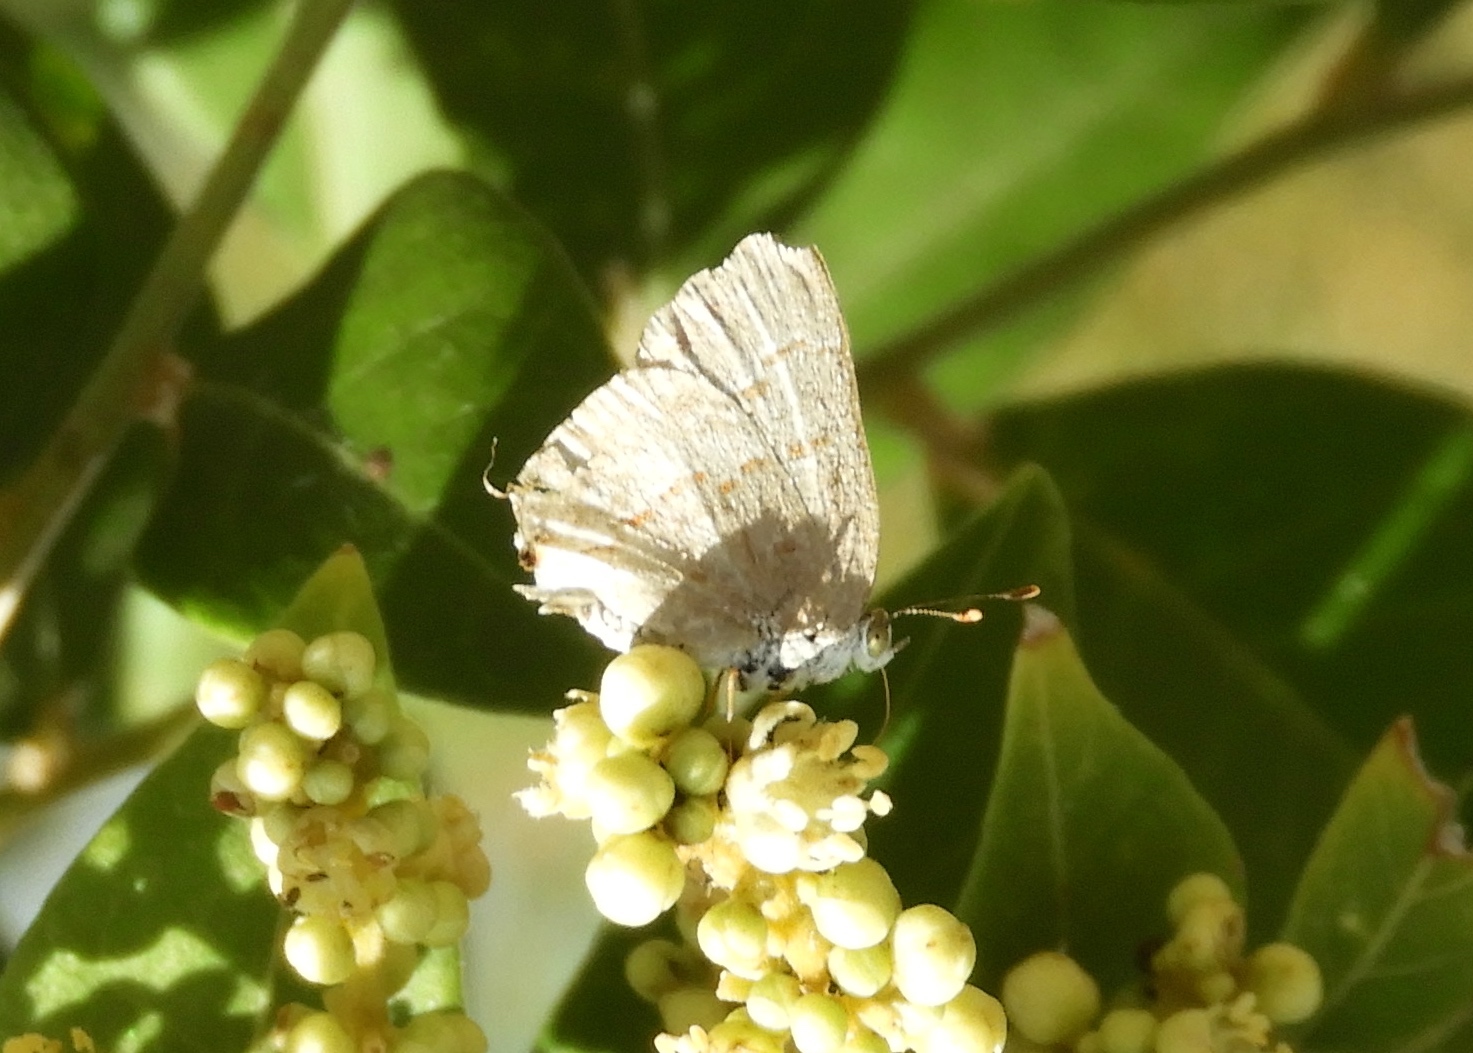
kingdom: Animalia
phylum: Arthropoda
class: Insecta
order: Lepidoptera
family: Lycaenidae
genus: Ministrymon
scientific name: Ministrymon clytie
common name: Clytie ministreak
